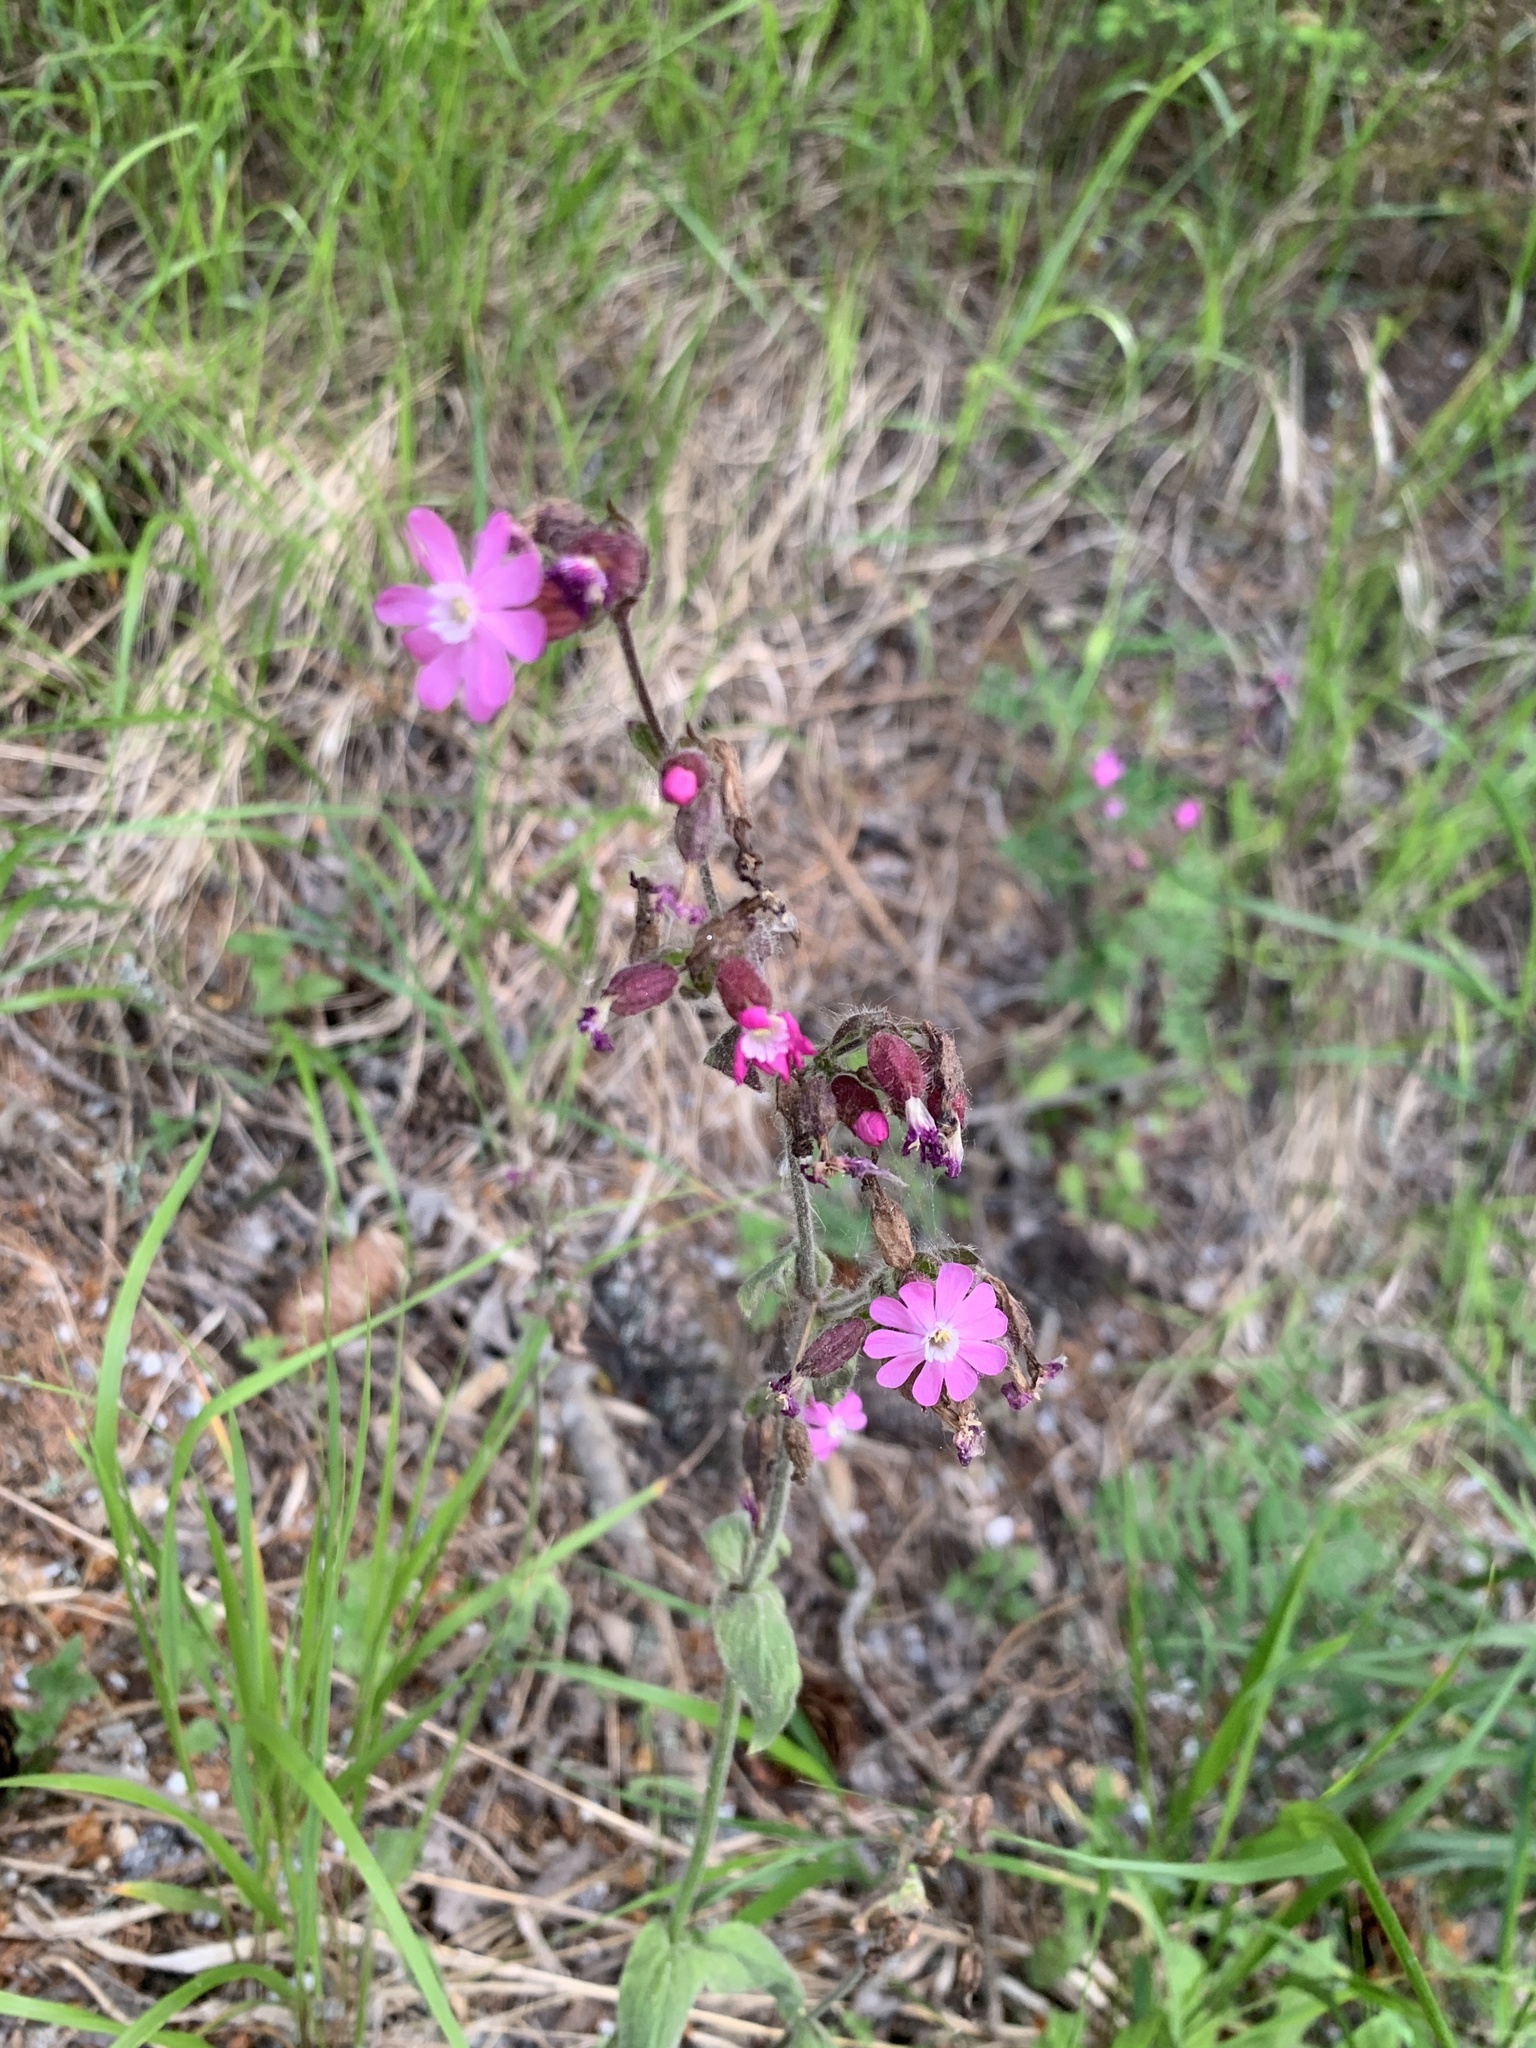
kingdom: Plantae
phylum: Tracheophyta
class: Magnoliopsida
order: Caryophyllales
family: Caryophyllaceae
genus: Silene
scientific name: Silene dioica
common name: Red campion
